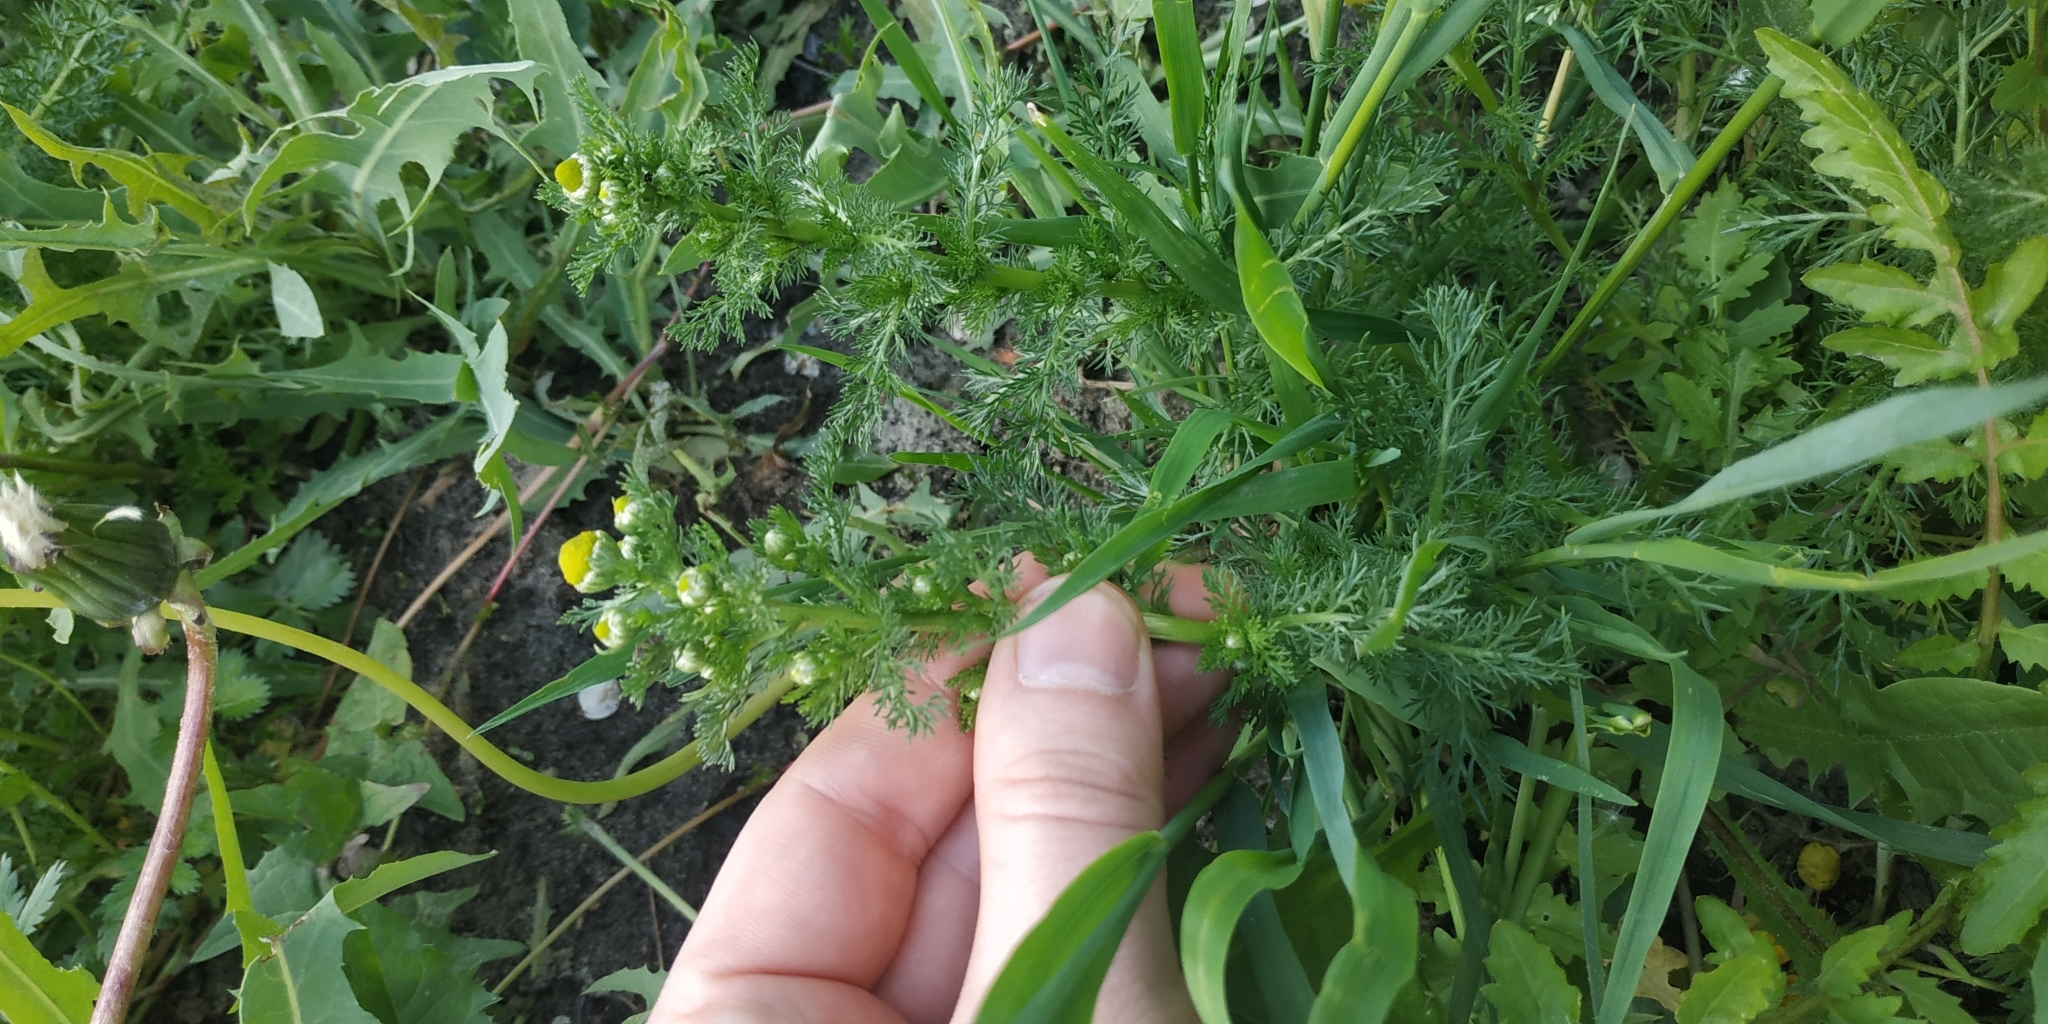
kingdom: Plantae
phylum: Tracheophyta
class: Magnoliopsida
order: Asterales
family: Asteraceae
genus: Matricaria
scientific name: Matricaria discoidea
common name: Disc mayweed
